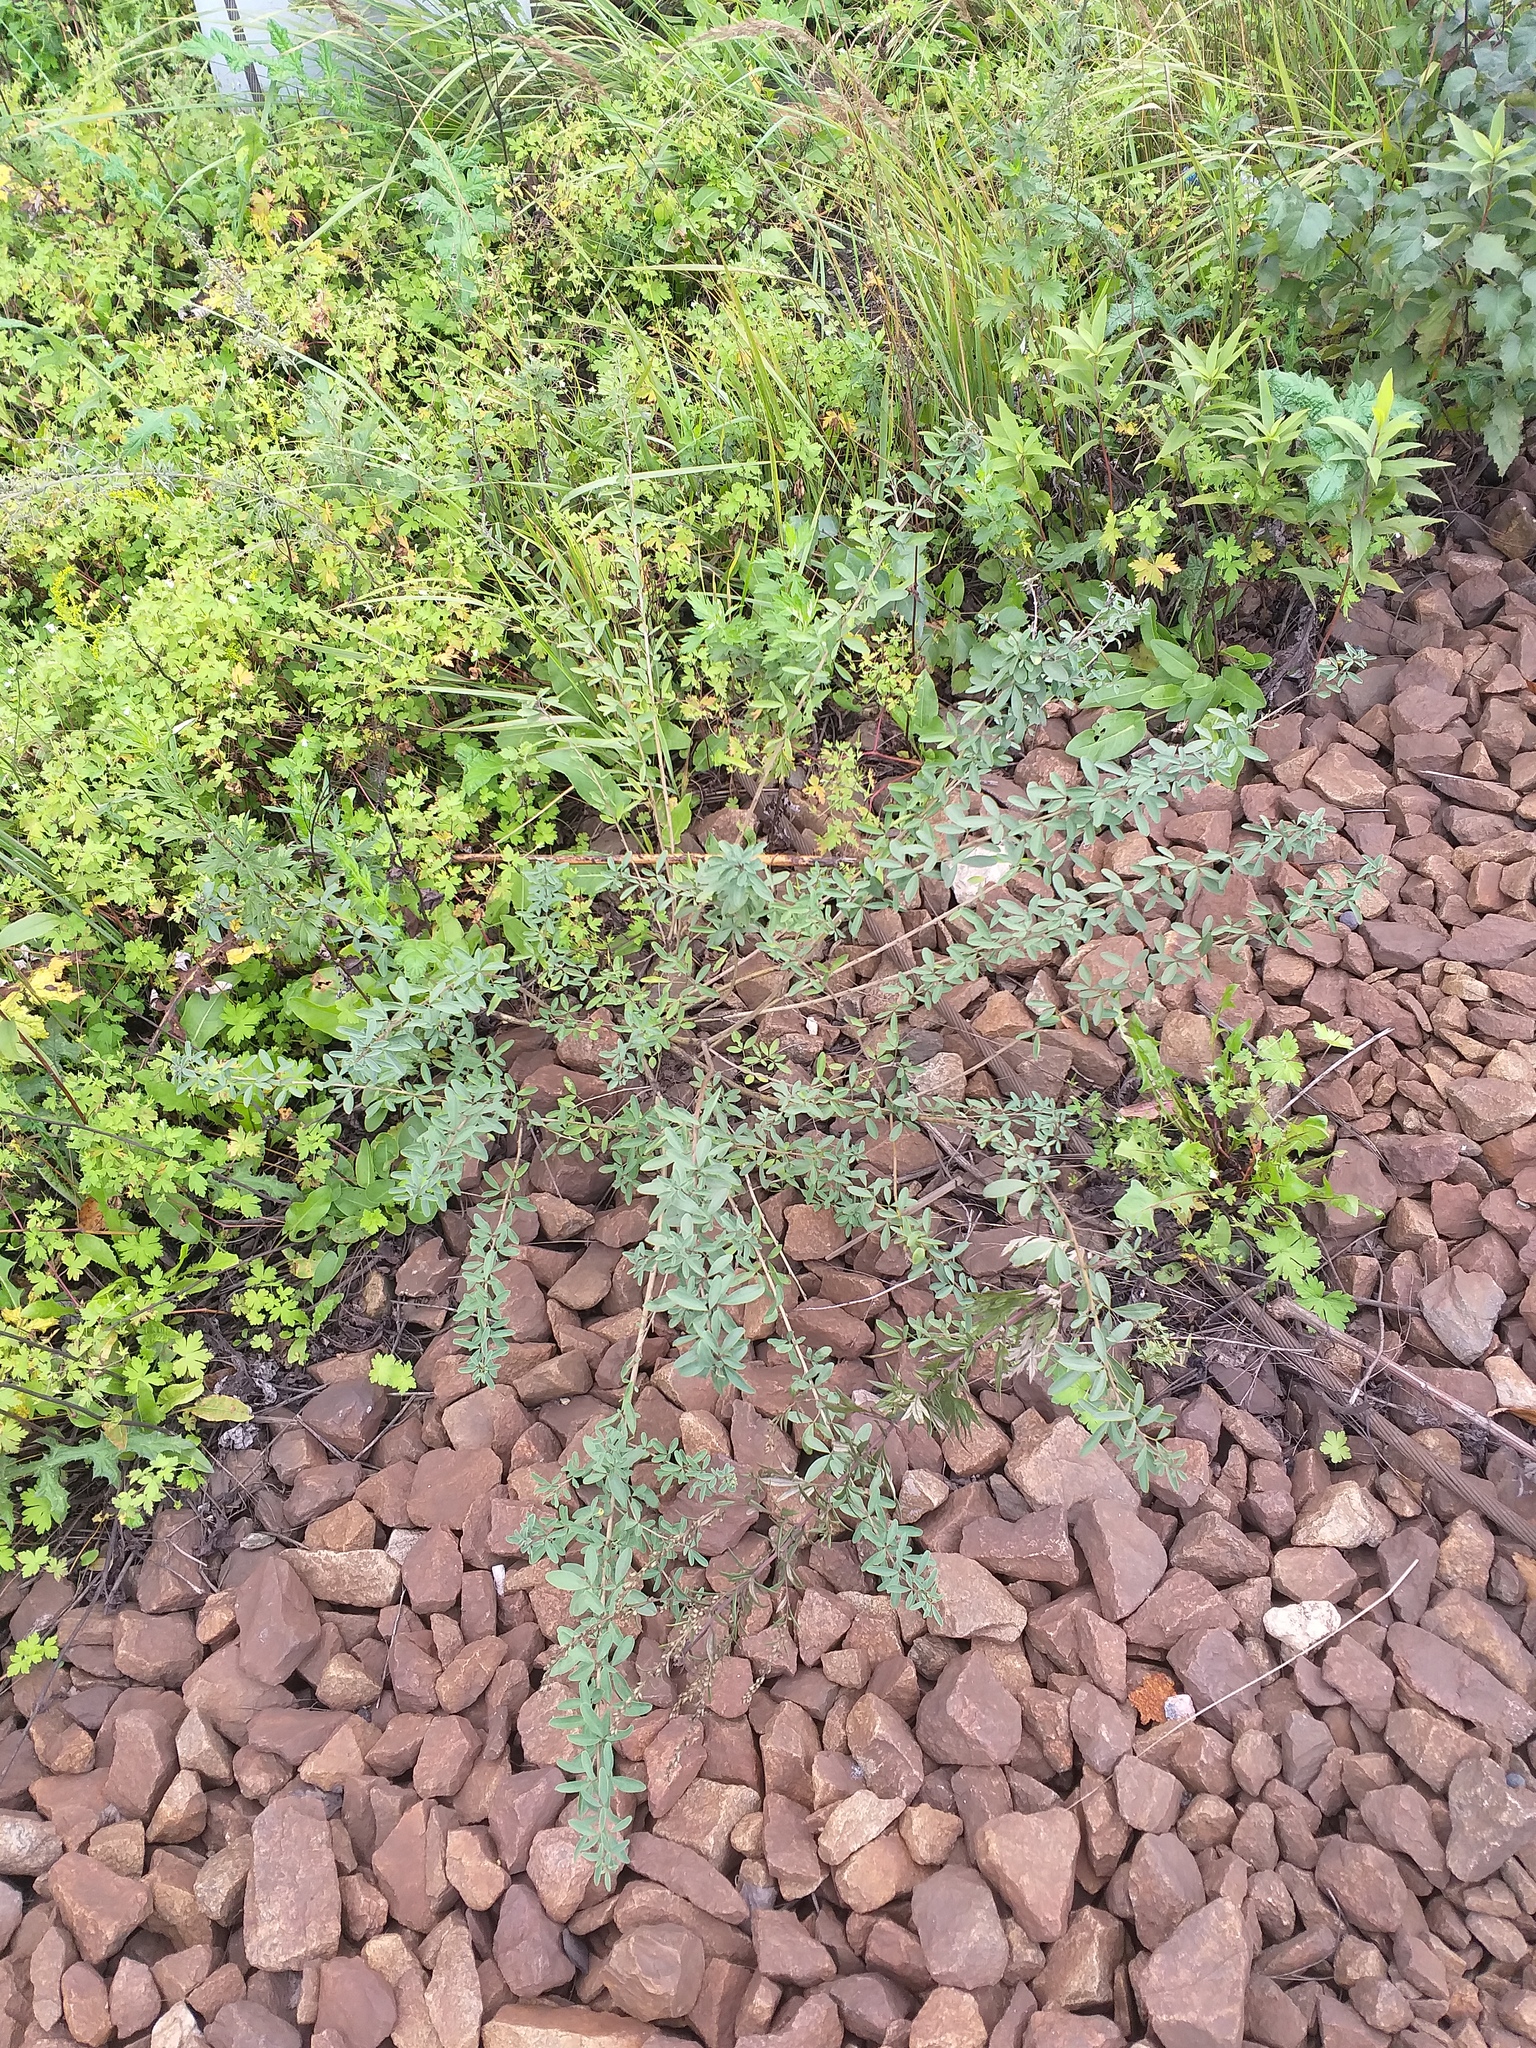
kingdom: Plantae
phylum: Tracheophyta
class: Magnoliopsida
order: Fabales
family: Fabaceae
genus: Chamaecytisus
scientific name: Chamaecytisus ruthenicus
